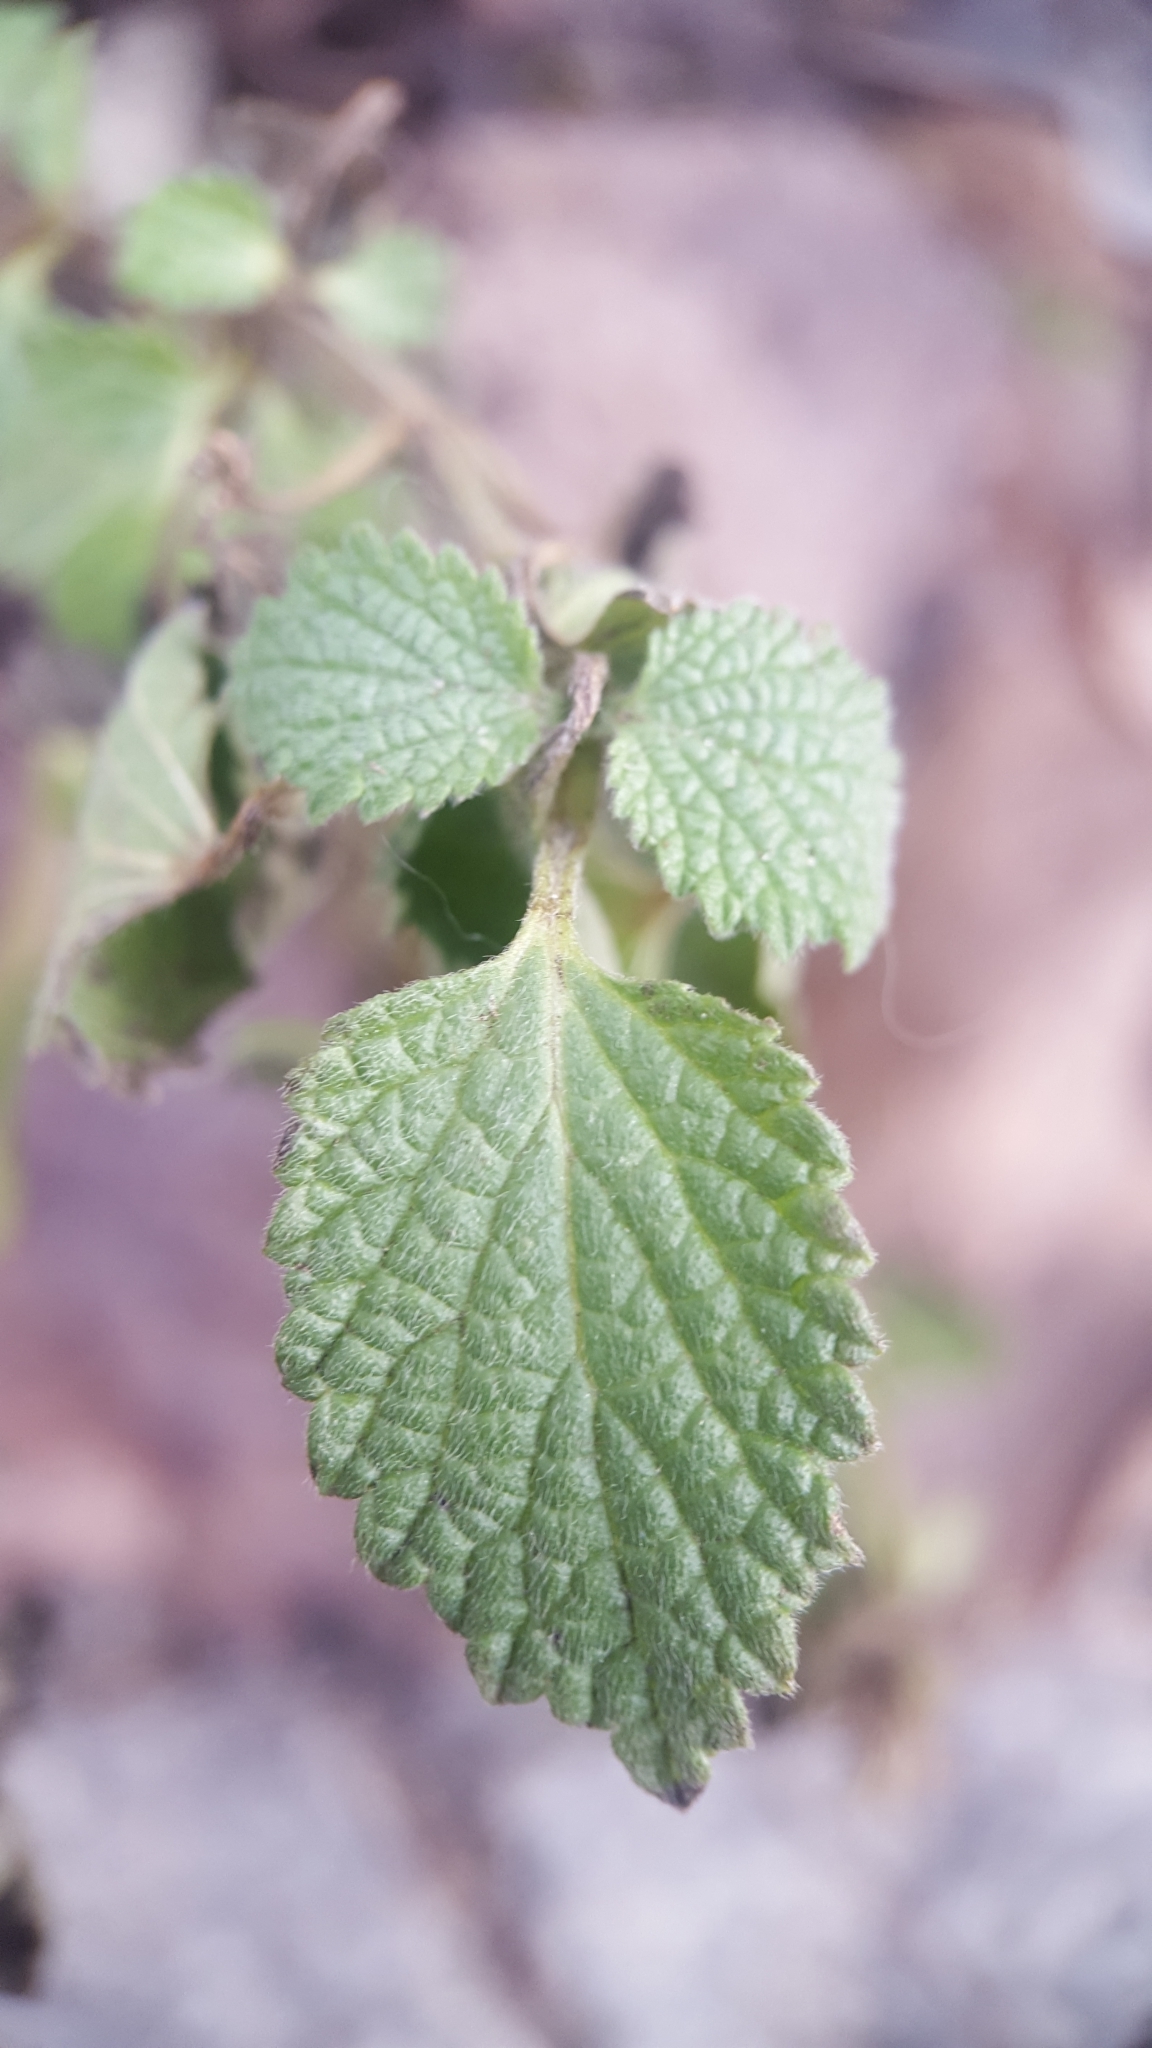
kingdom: Plantae
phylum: Tracheophyta
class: Magnoliopsida
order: Lamiales
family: Lamiaceae
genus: Ballota
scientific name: Ballota nigra
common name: Black horehound
